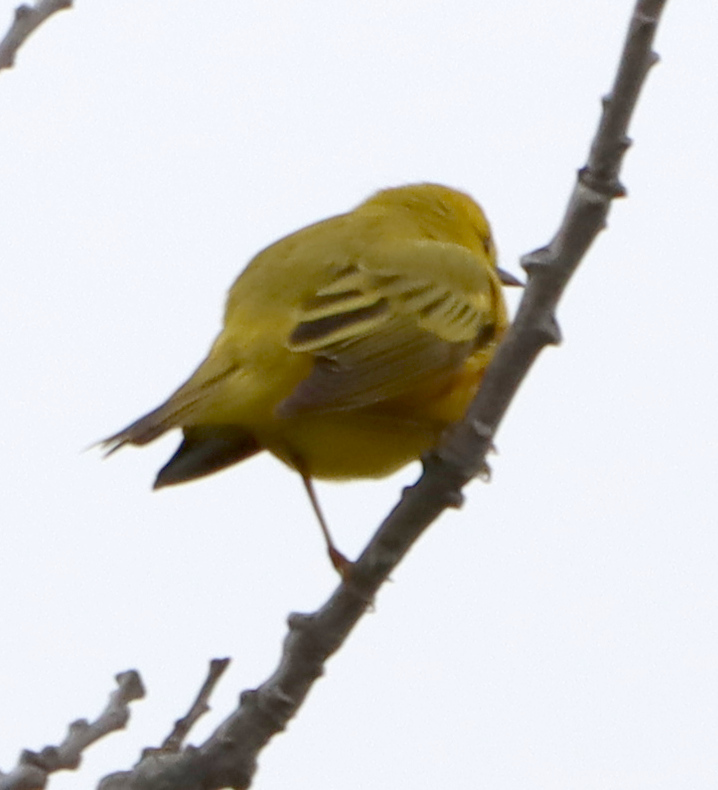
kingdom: Animalia
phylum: Chordata
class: Aves
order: Passeriformes
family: Parulidae
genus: Setophaga
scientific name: Setophaga petechia
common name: Yellow warbler
